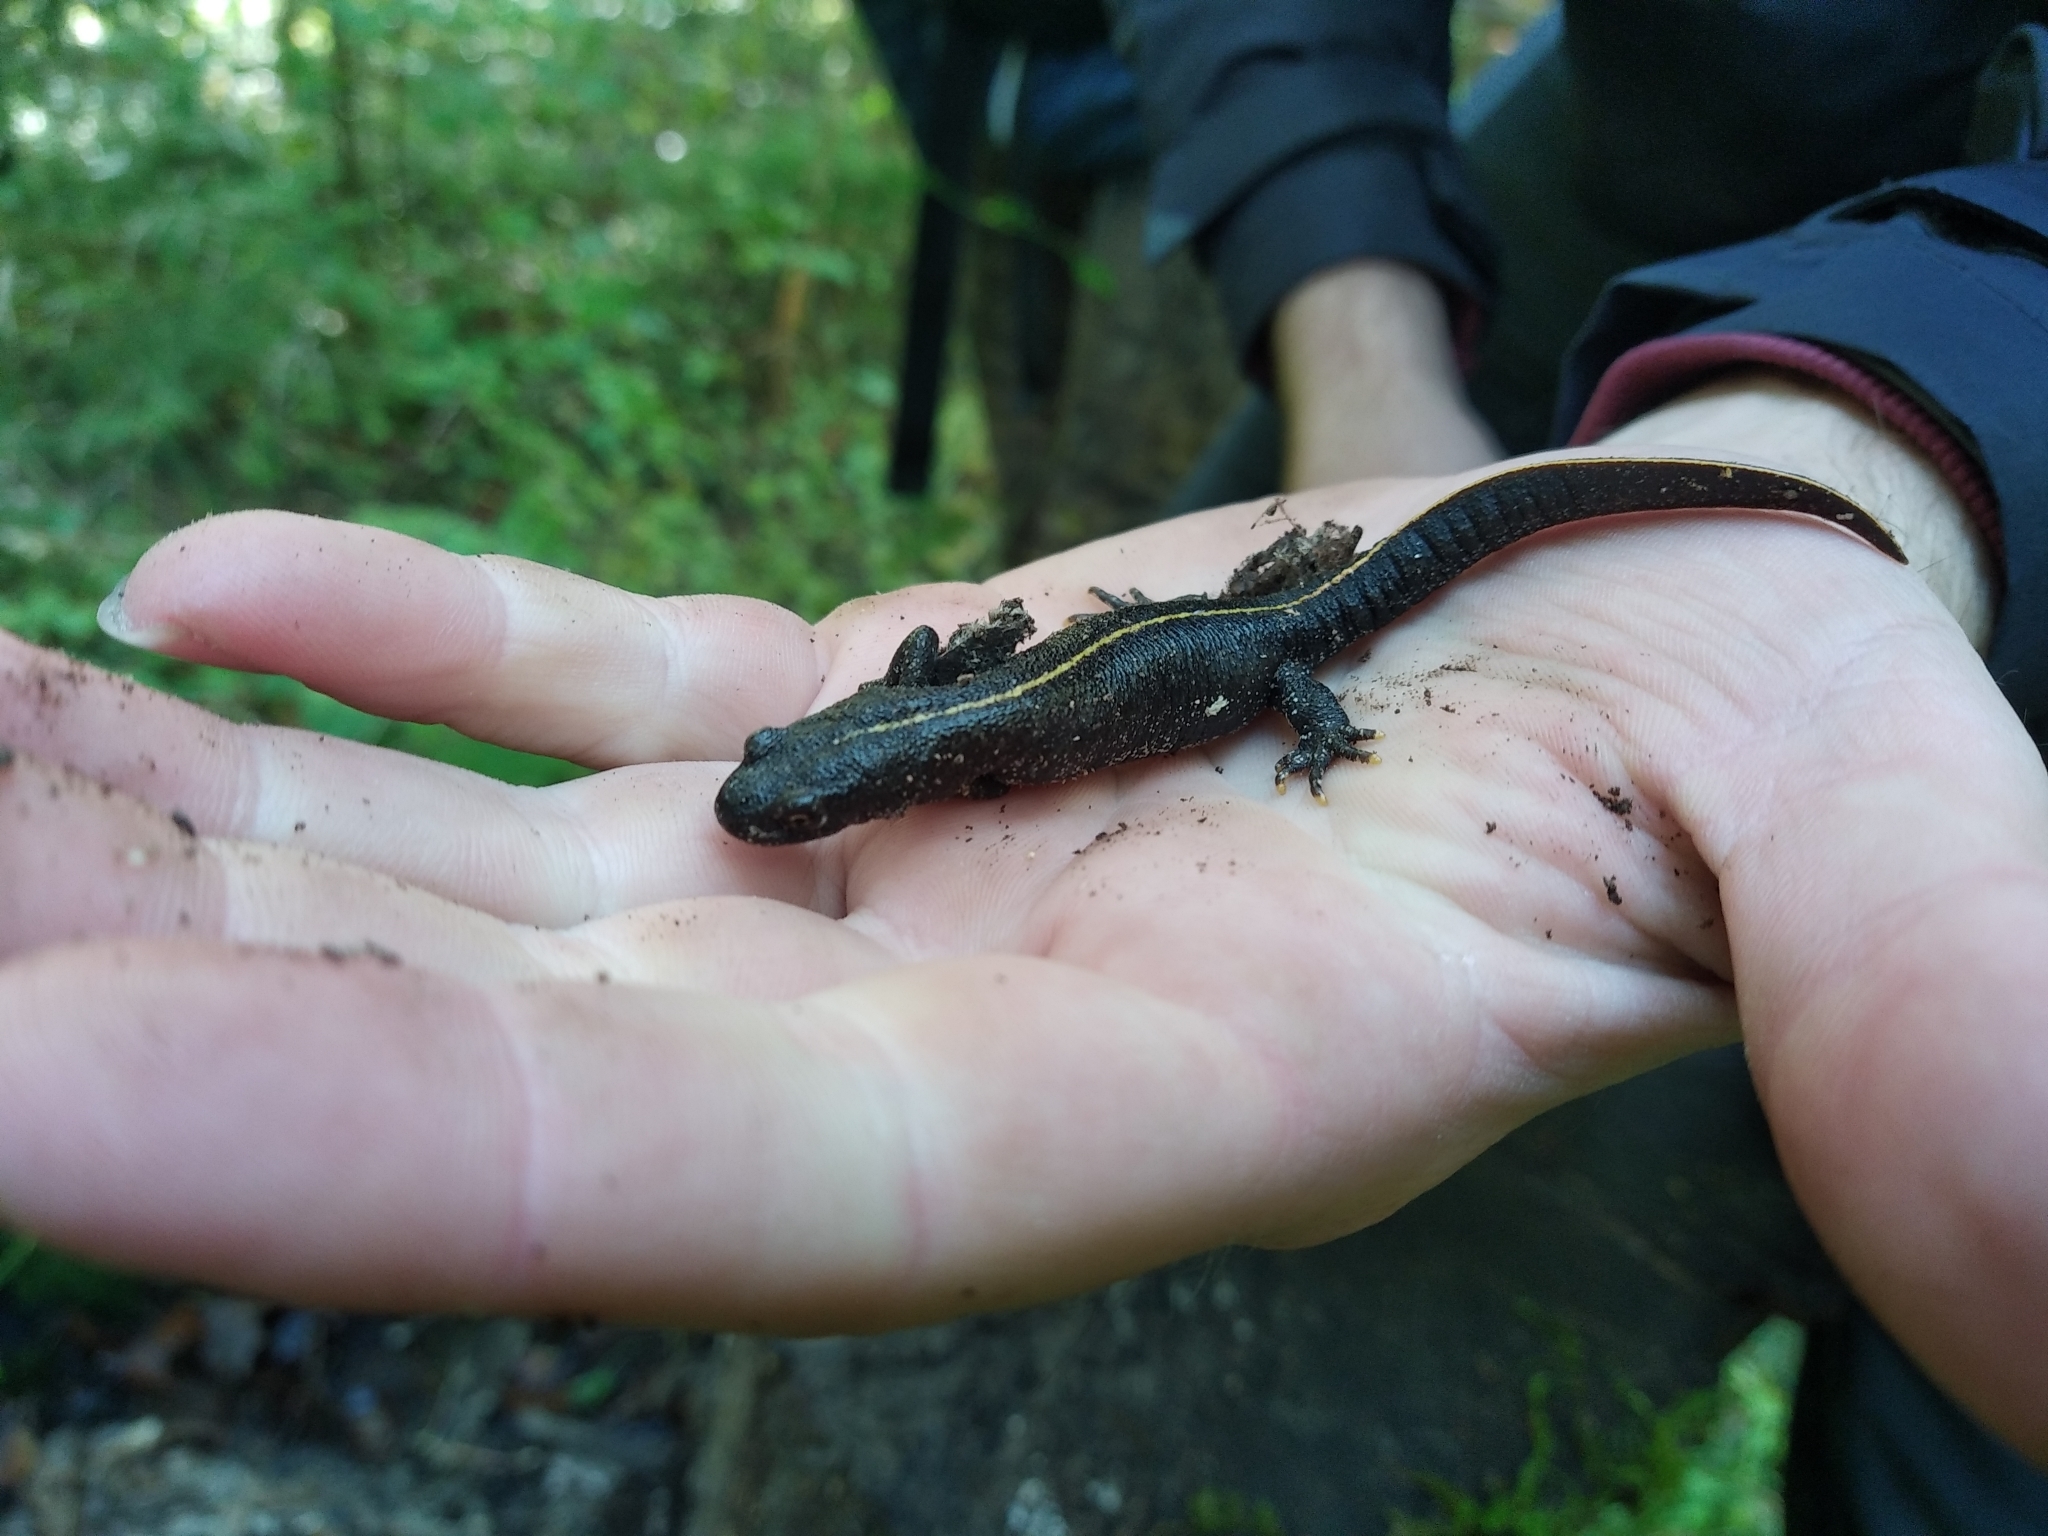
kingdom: Animalia
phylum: Chordata
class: Amphibia
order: Caudata
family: Salamandridae
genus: Triturus
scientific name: Triturus carnifex
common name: Italian crested newt
